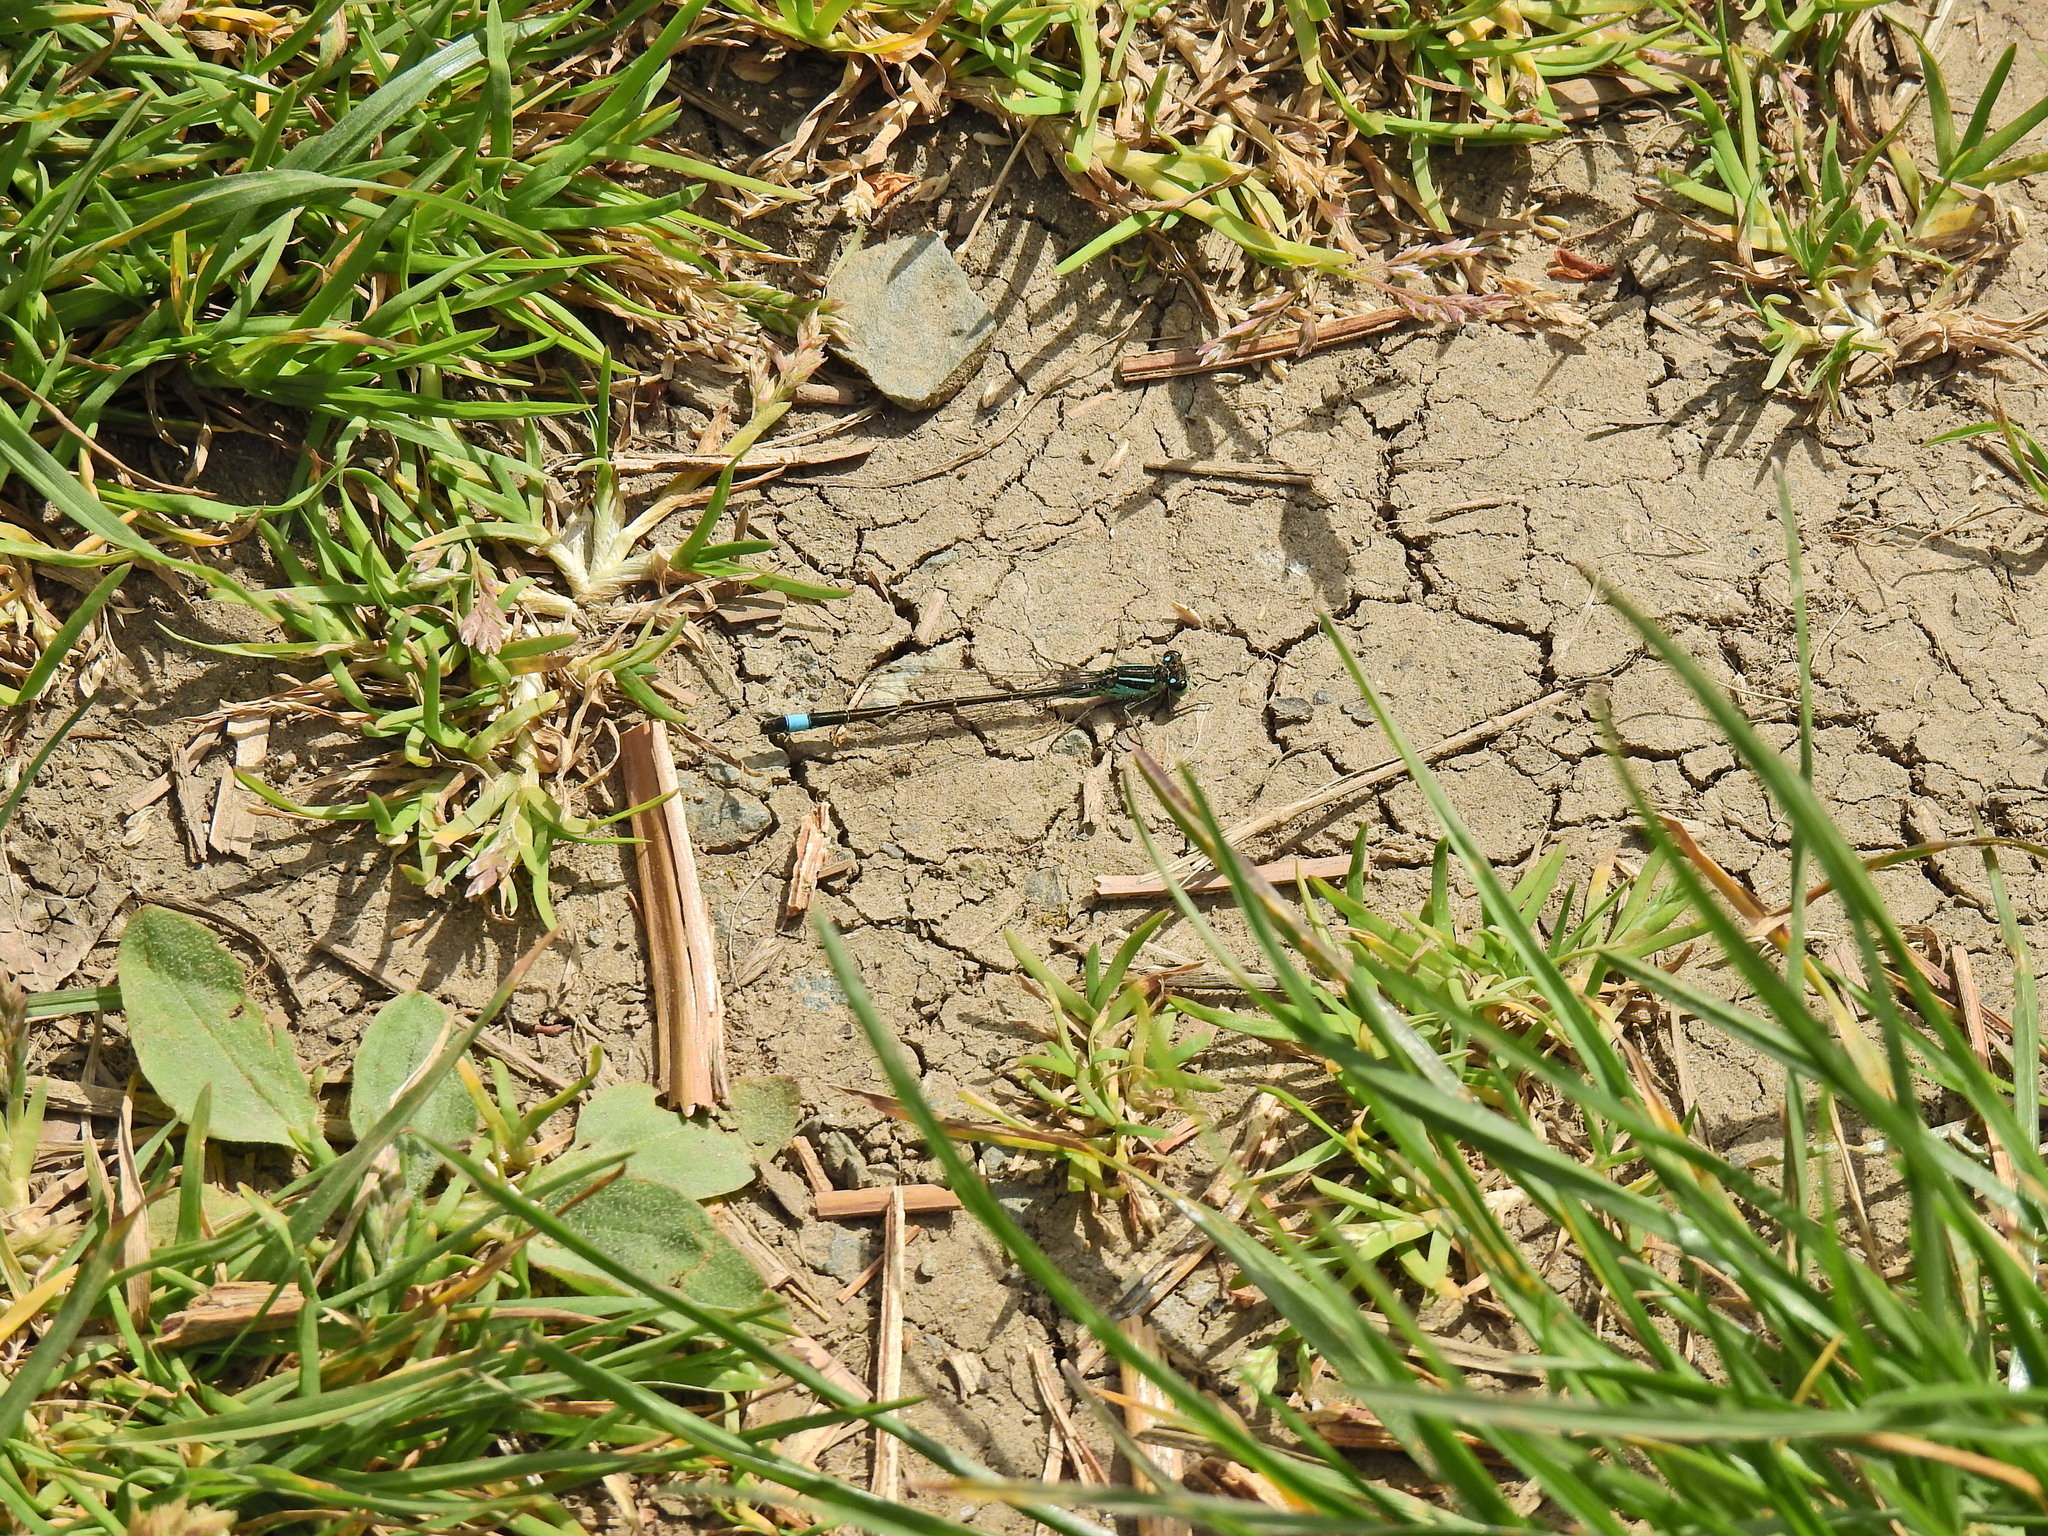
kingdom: Animalia
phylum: Arthropoda
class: Insecta
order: Odonata
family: Coenagrionidae
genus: Ischnura
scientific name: Ischnura elegans
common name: Blue-tailed damselfly
